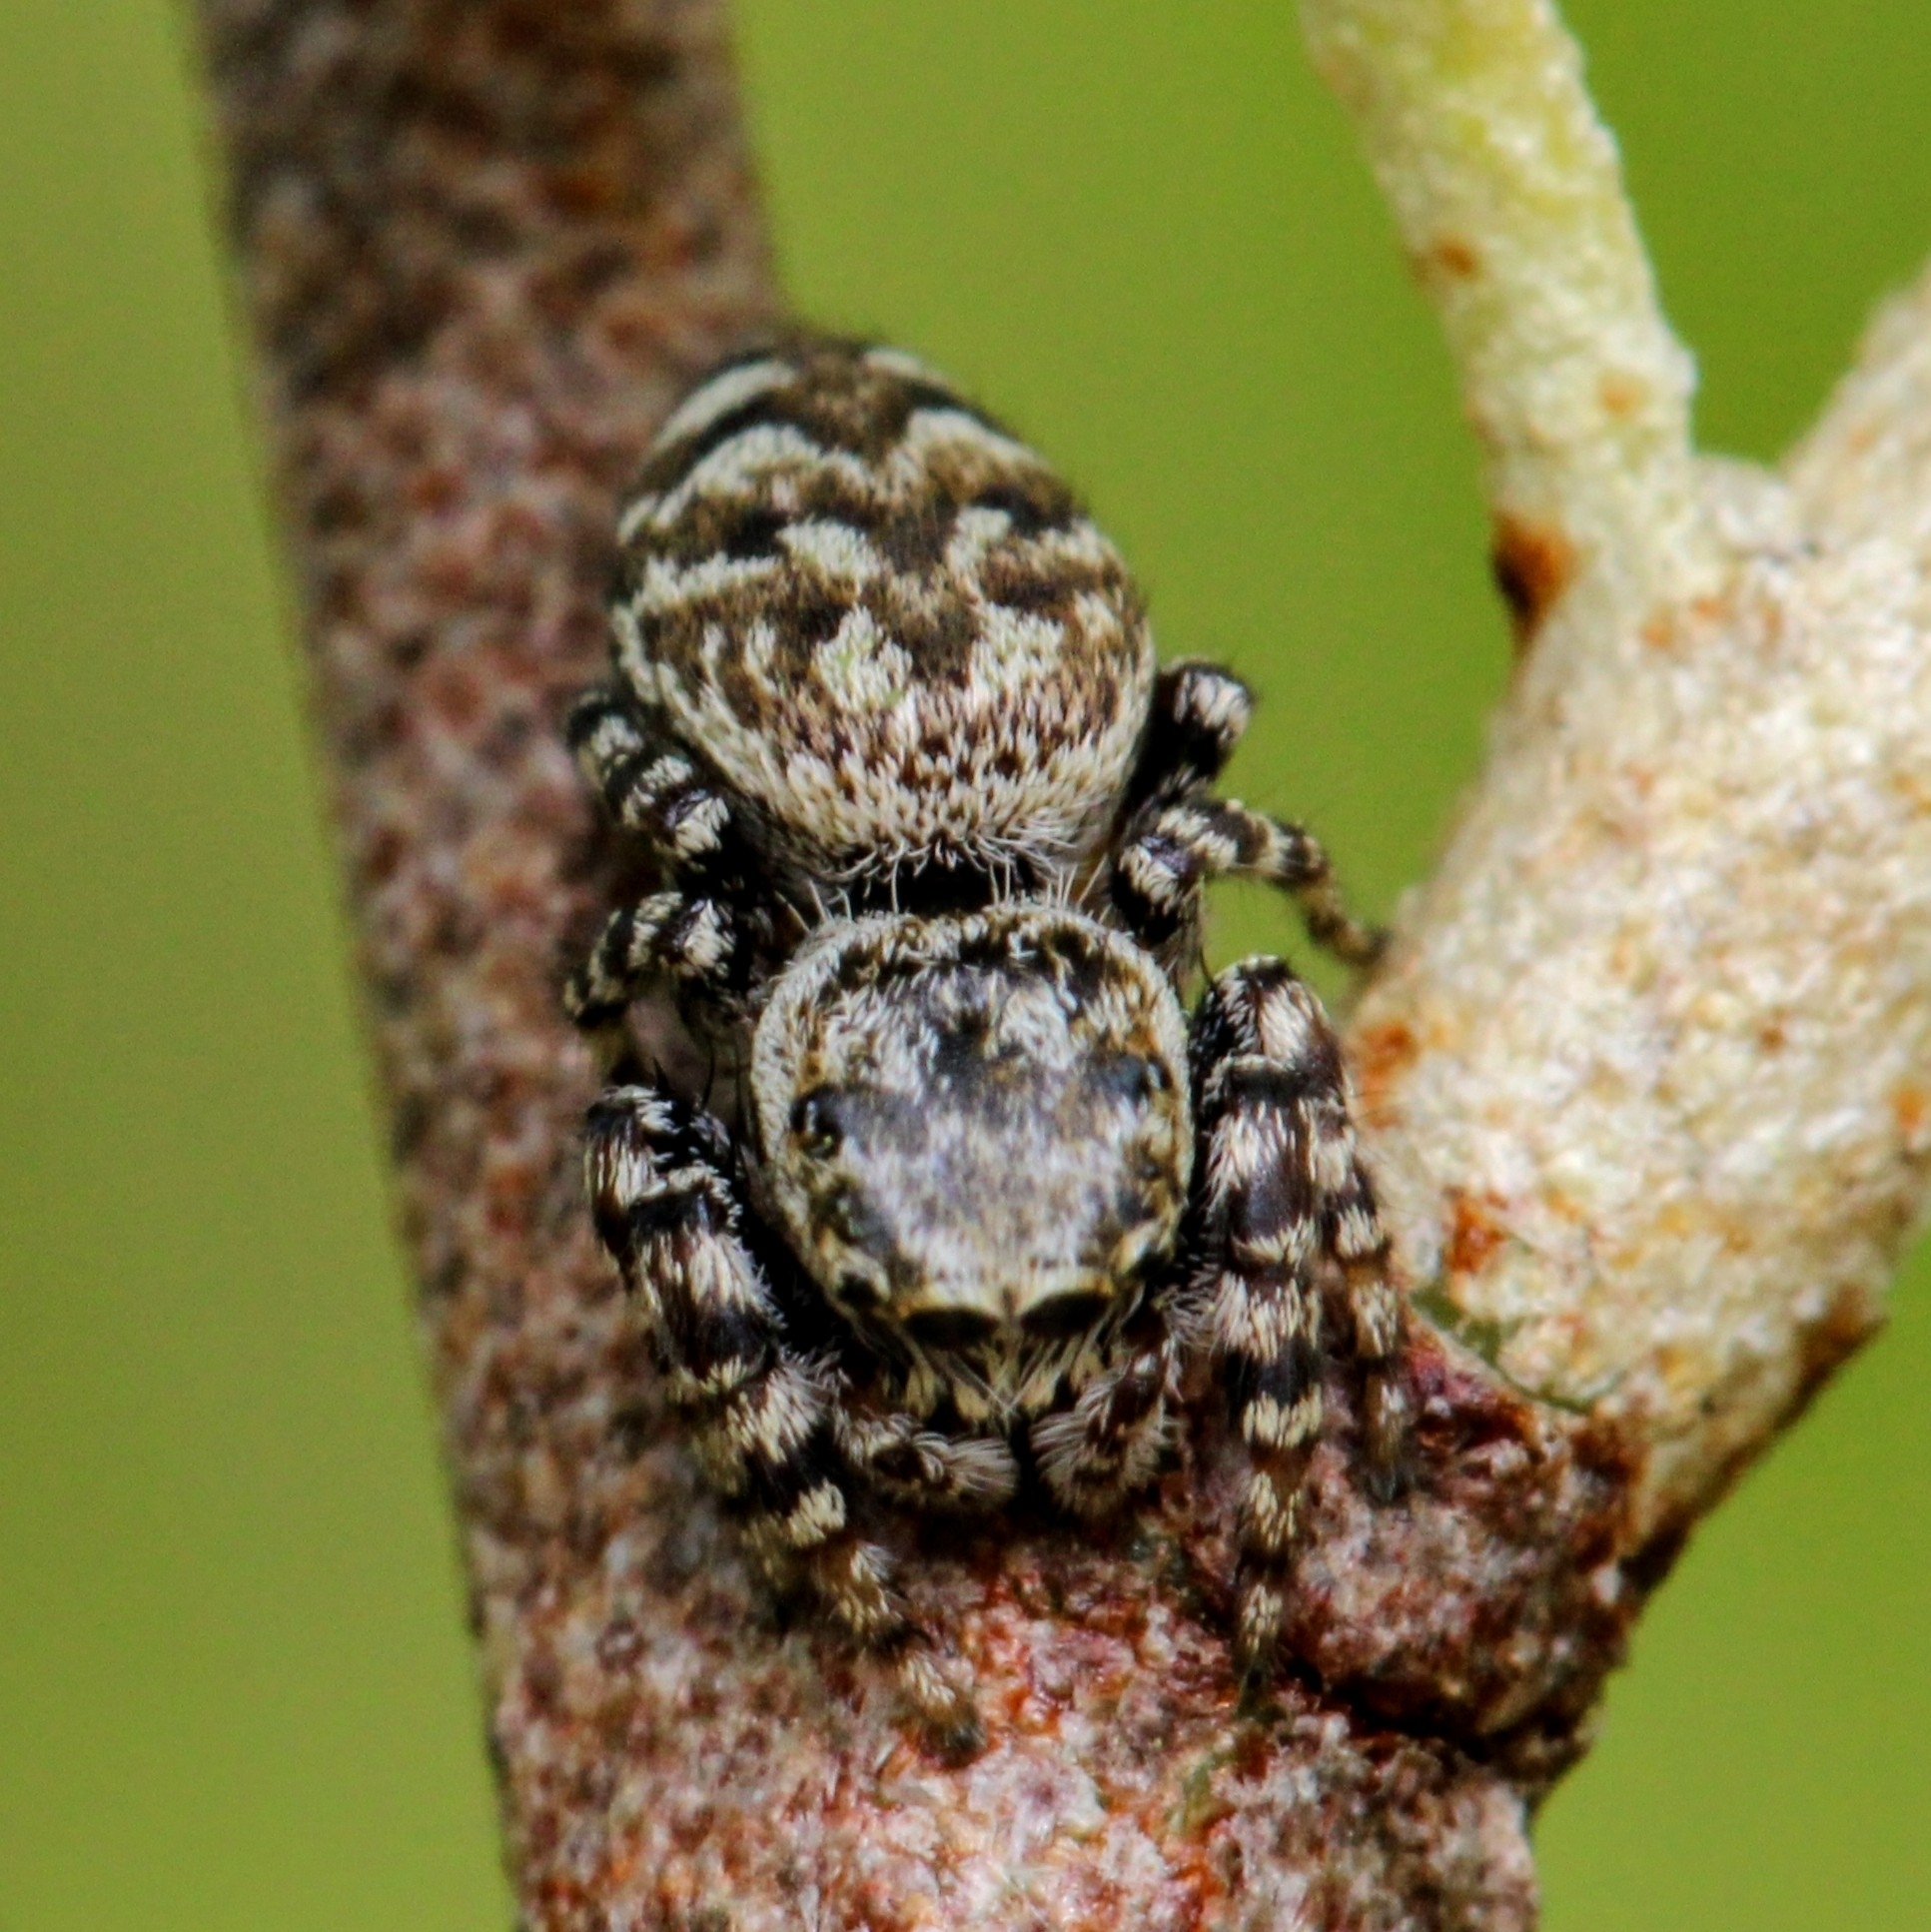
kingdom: Animalia
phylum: Arthropoda
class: Arachnida
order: Araneae
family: Salticidae
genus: Pelegrina
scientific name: Pelegrina galathea
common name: Jumping spiders
